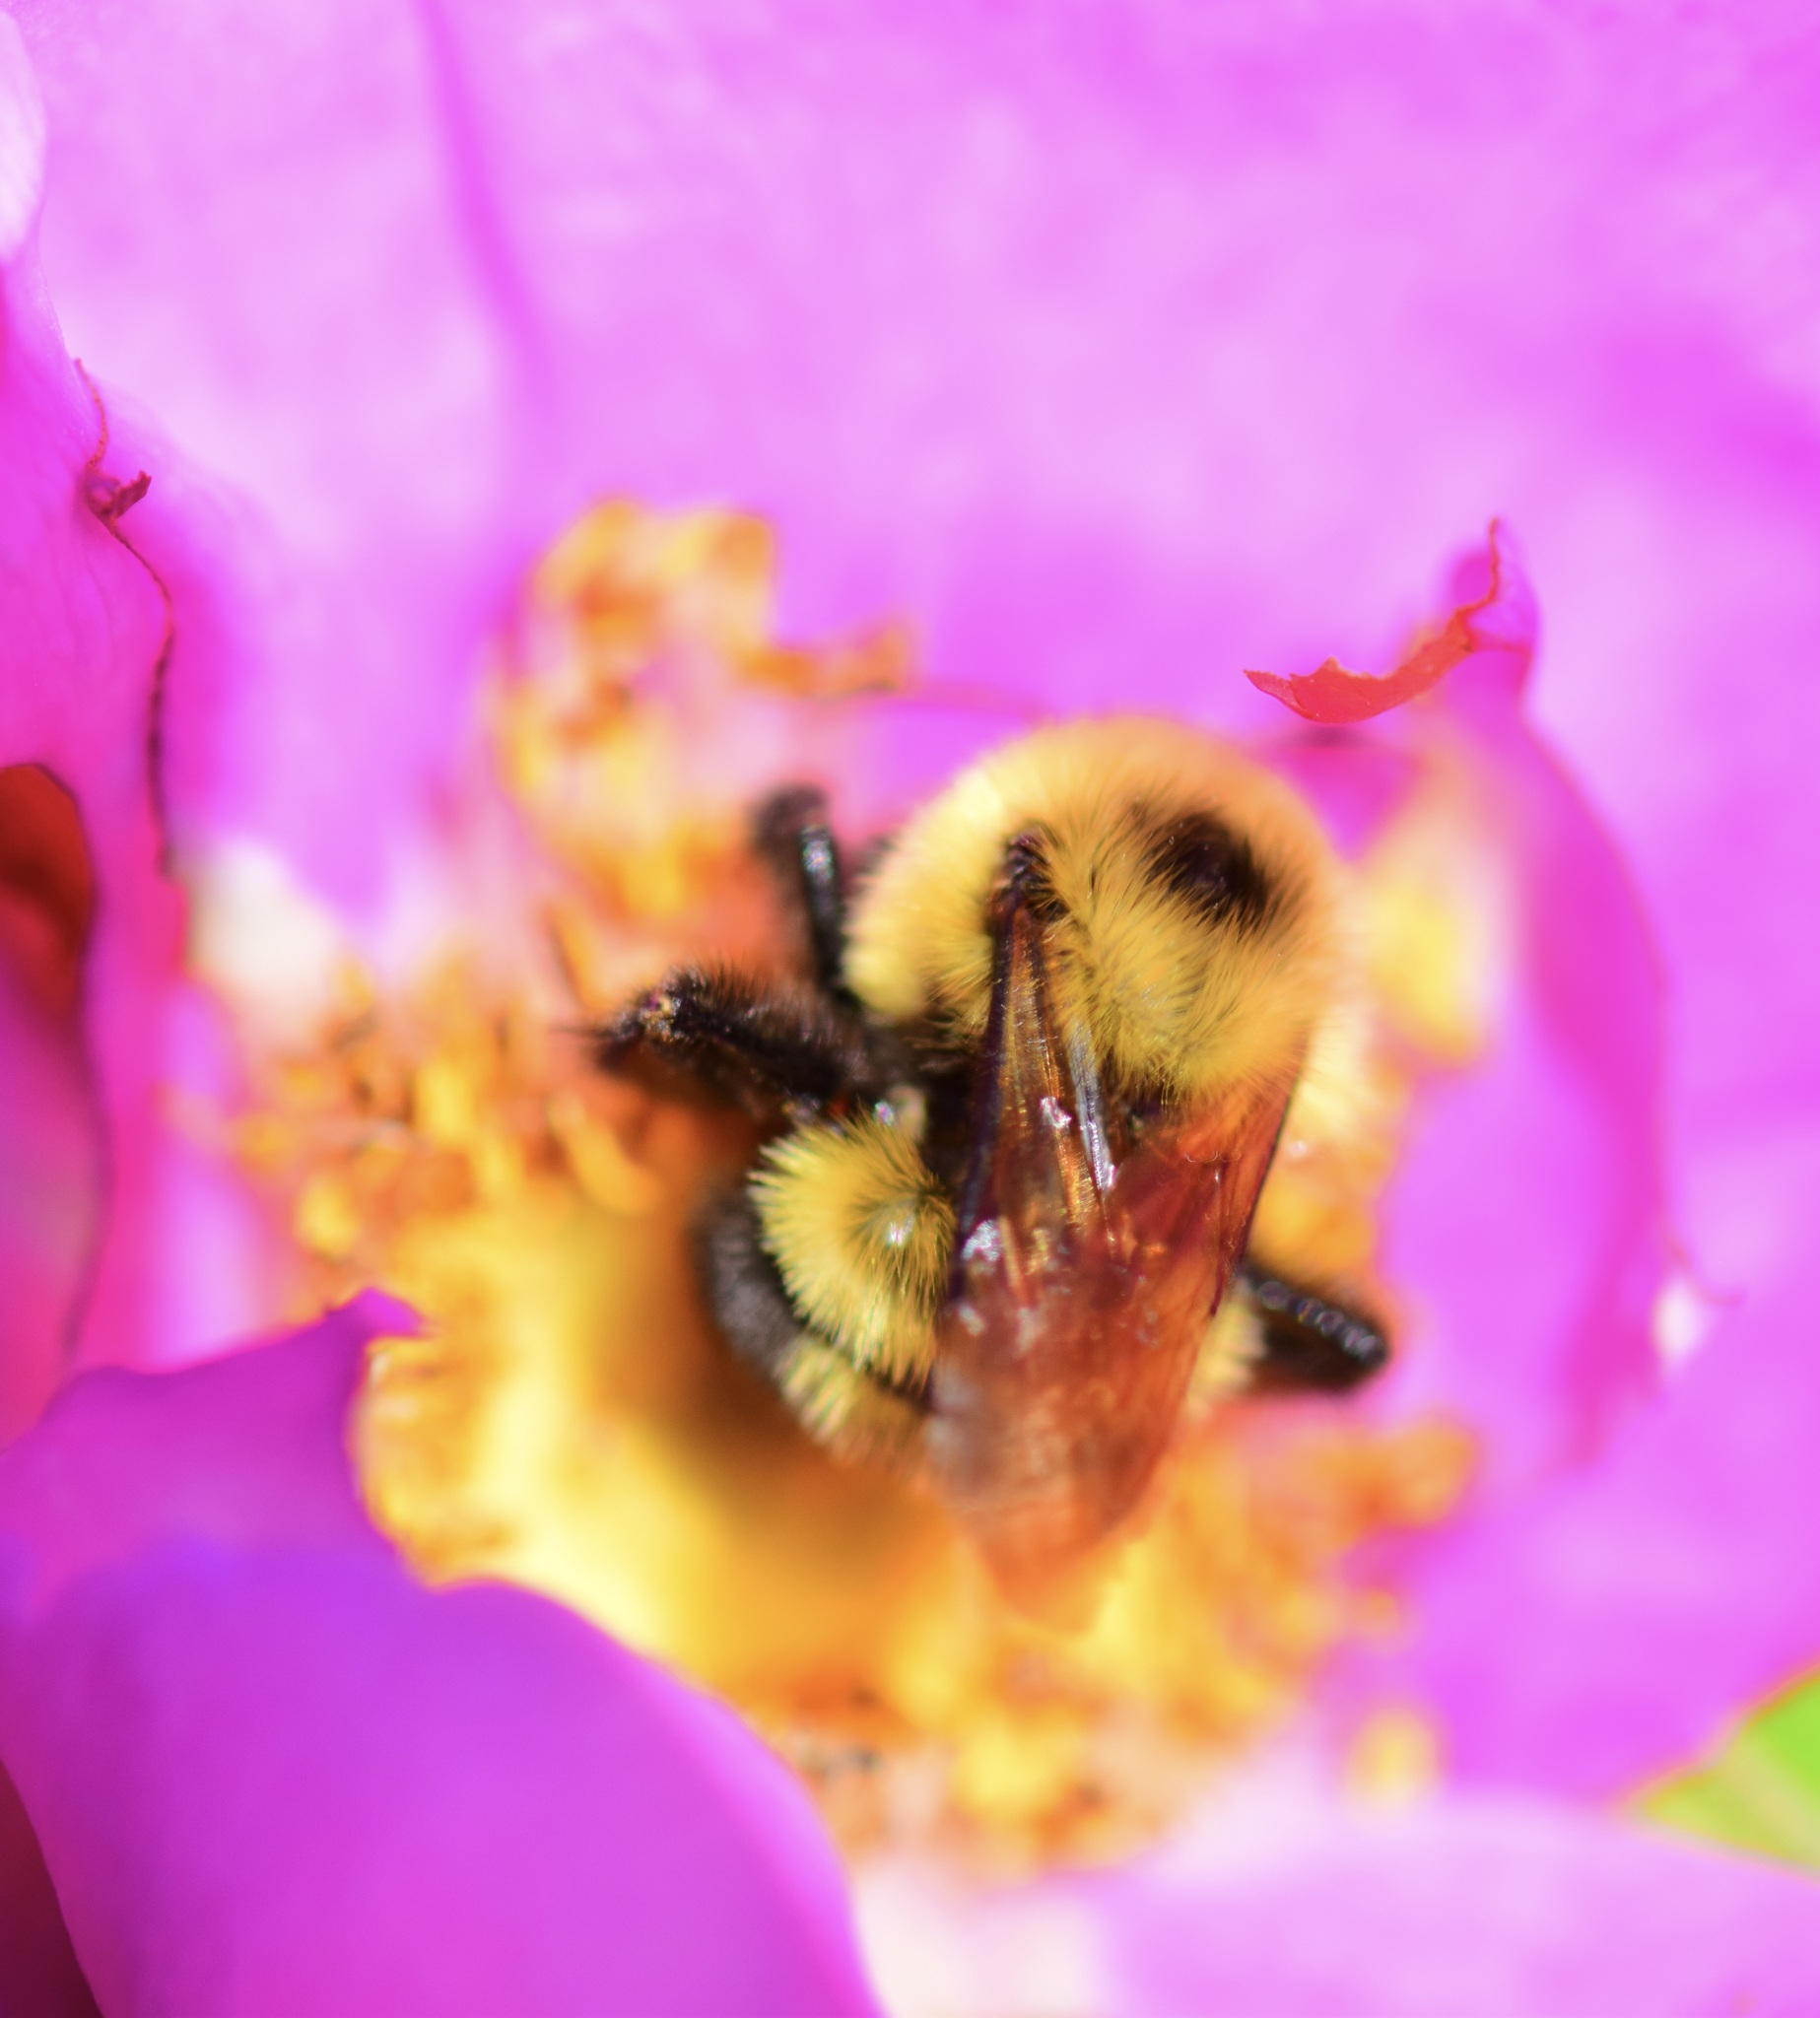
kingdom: Animalia
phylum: Arthropoda
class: Insecta
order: Hymenoptera
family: Apidae
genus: Bombus
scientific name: Bombus bimaculatus
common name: Two-spotted bumble bee
